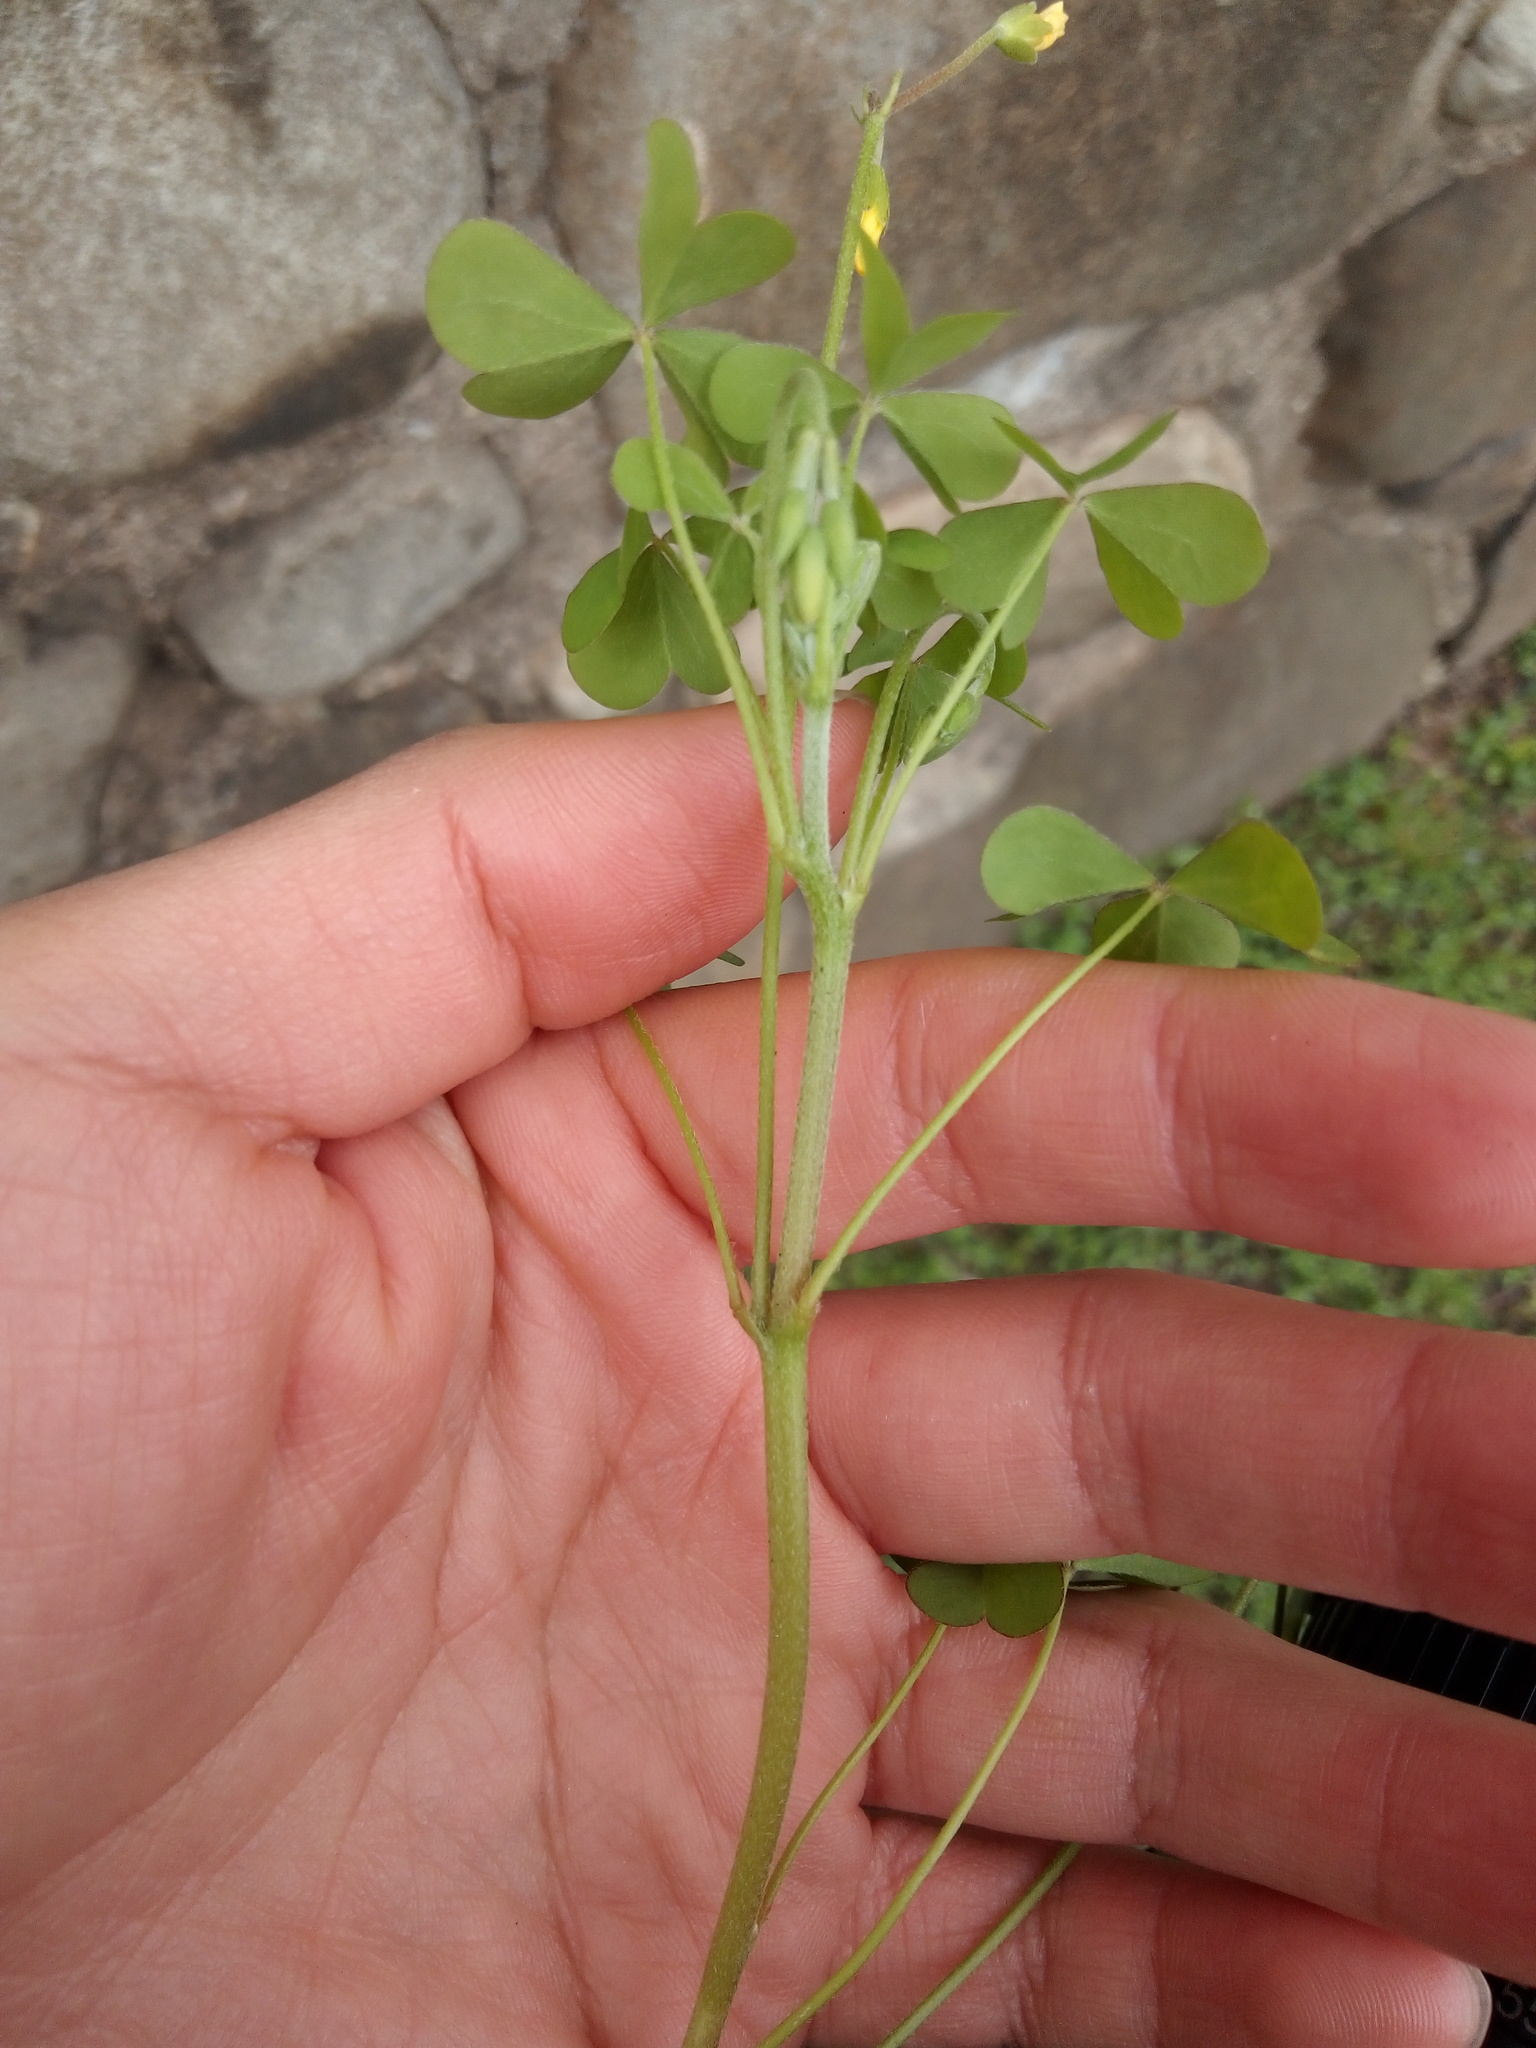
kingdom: Plantae
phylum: Tracheophyta
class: Magnoliopsida
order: Oxalidales
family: Oxalidaceae
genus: Oxalis
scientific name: Oxalis dillenii
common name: Sussex yellow-sorrel
